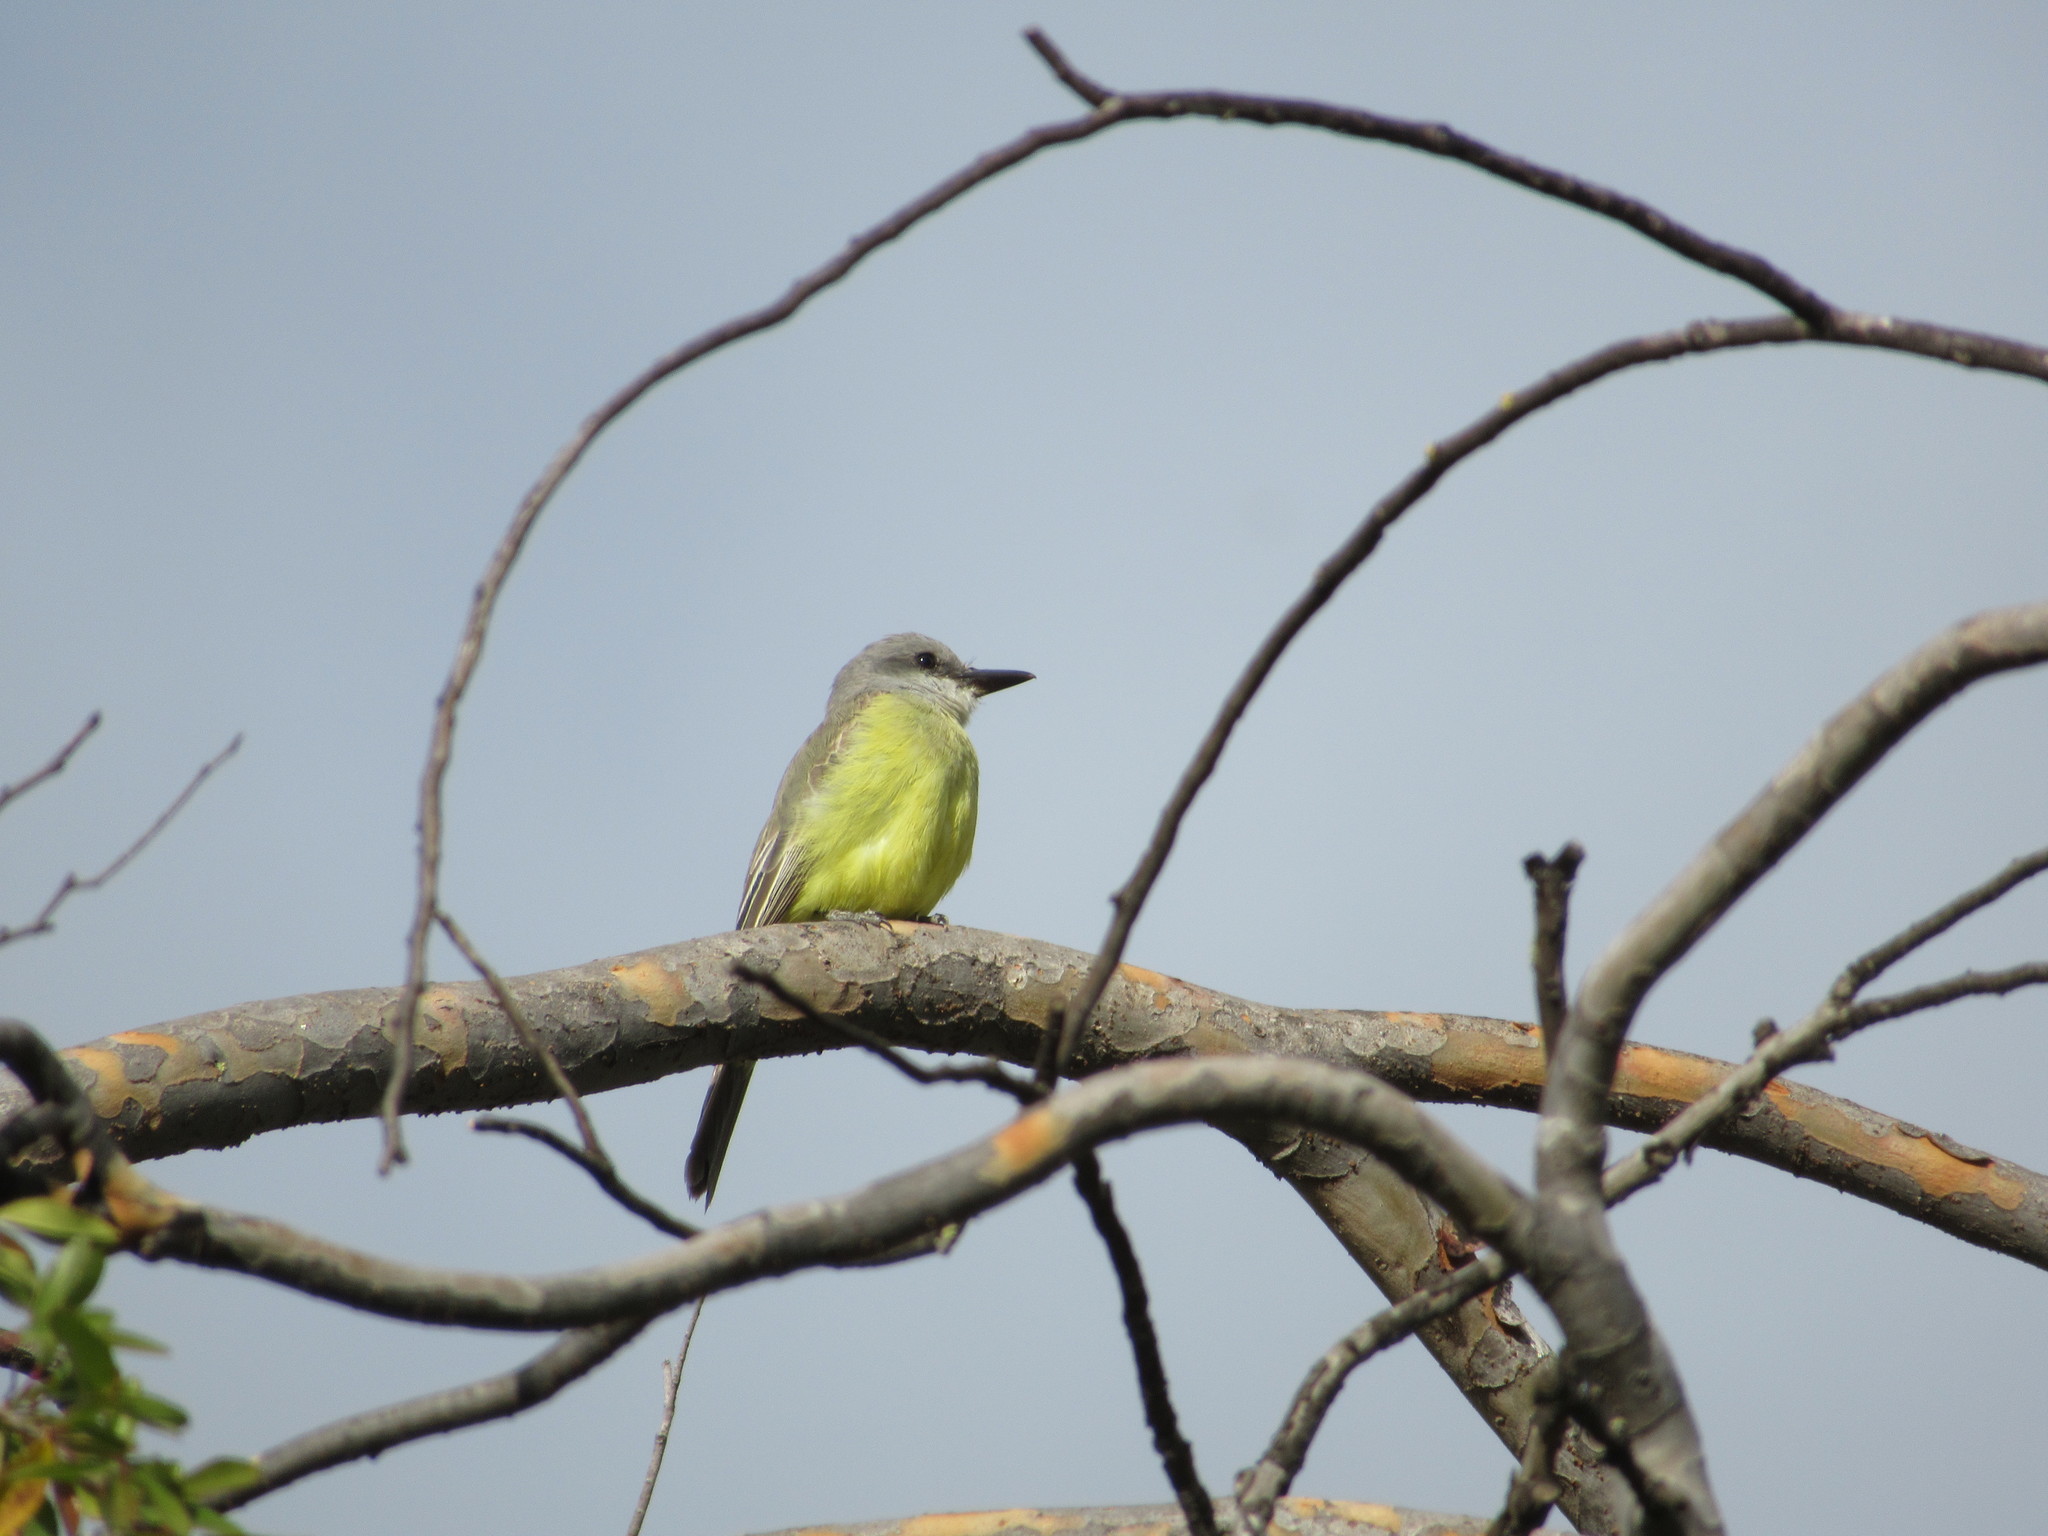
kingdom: Animalia
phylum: Chordata
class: Aves
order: Passeriformes
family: Tyrannidae
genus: Tyrannus
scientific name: Tyrannus melancholicus
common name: Tropical kingbird
